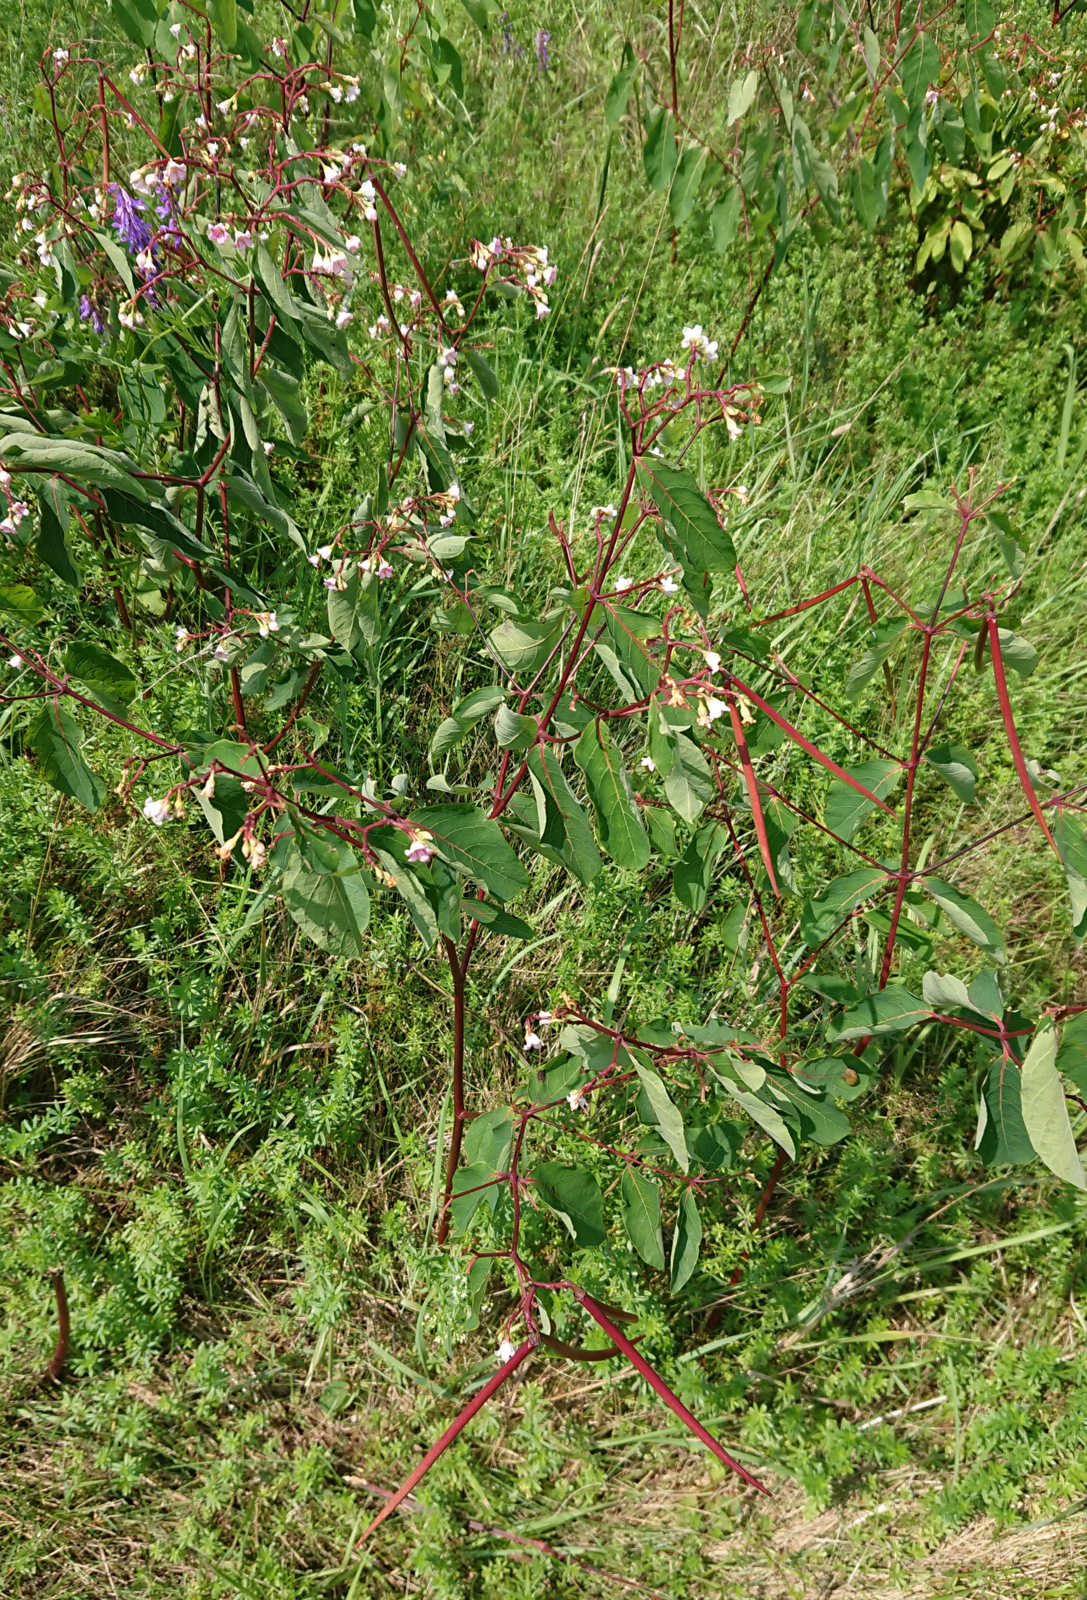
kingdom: Plantae
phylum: Tracheophyta
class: Magnoliopsida
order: Gentianales
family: Apocynaceae
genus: Apocynum
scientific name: Apocynum androsaemifolium
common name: Spreading dogbane
